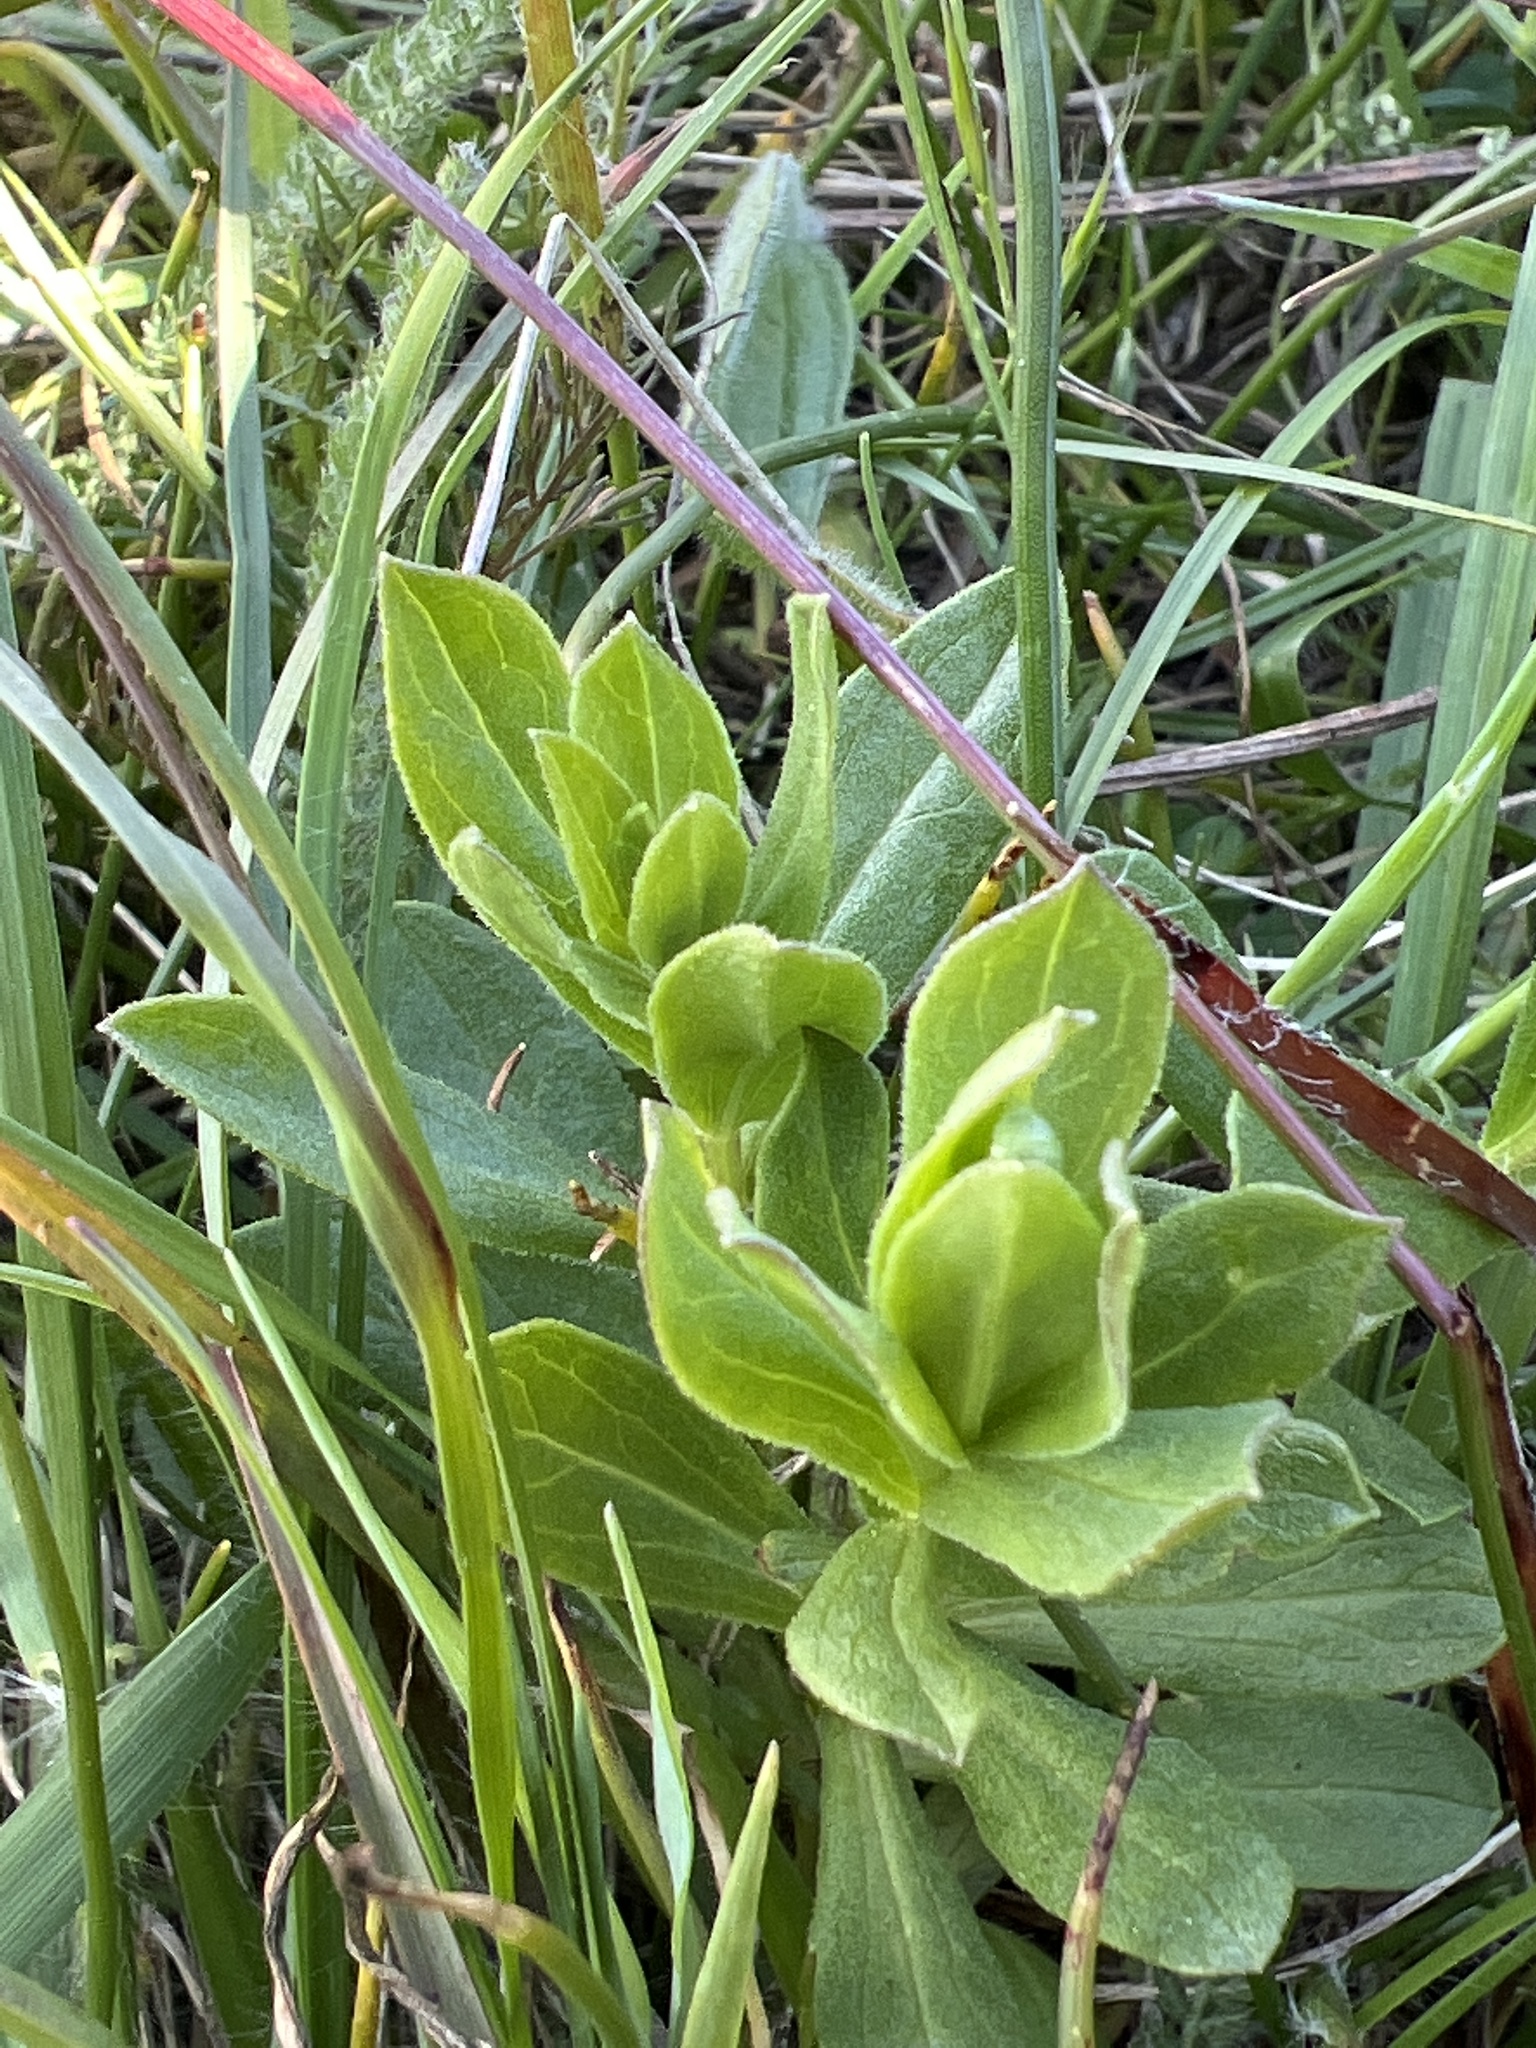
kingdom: Plantae
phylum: Tracheophyta
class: Magnoliopsida
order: Asterales
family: Asteraceae
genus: Sericocarpus
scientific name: Sericocarpus rigidus
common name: Columbia white-top aster
